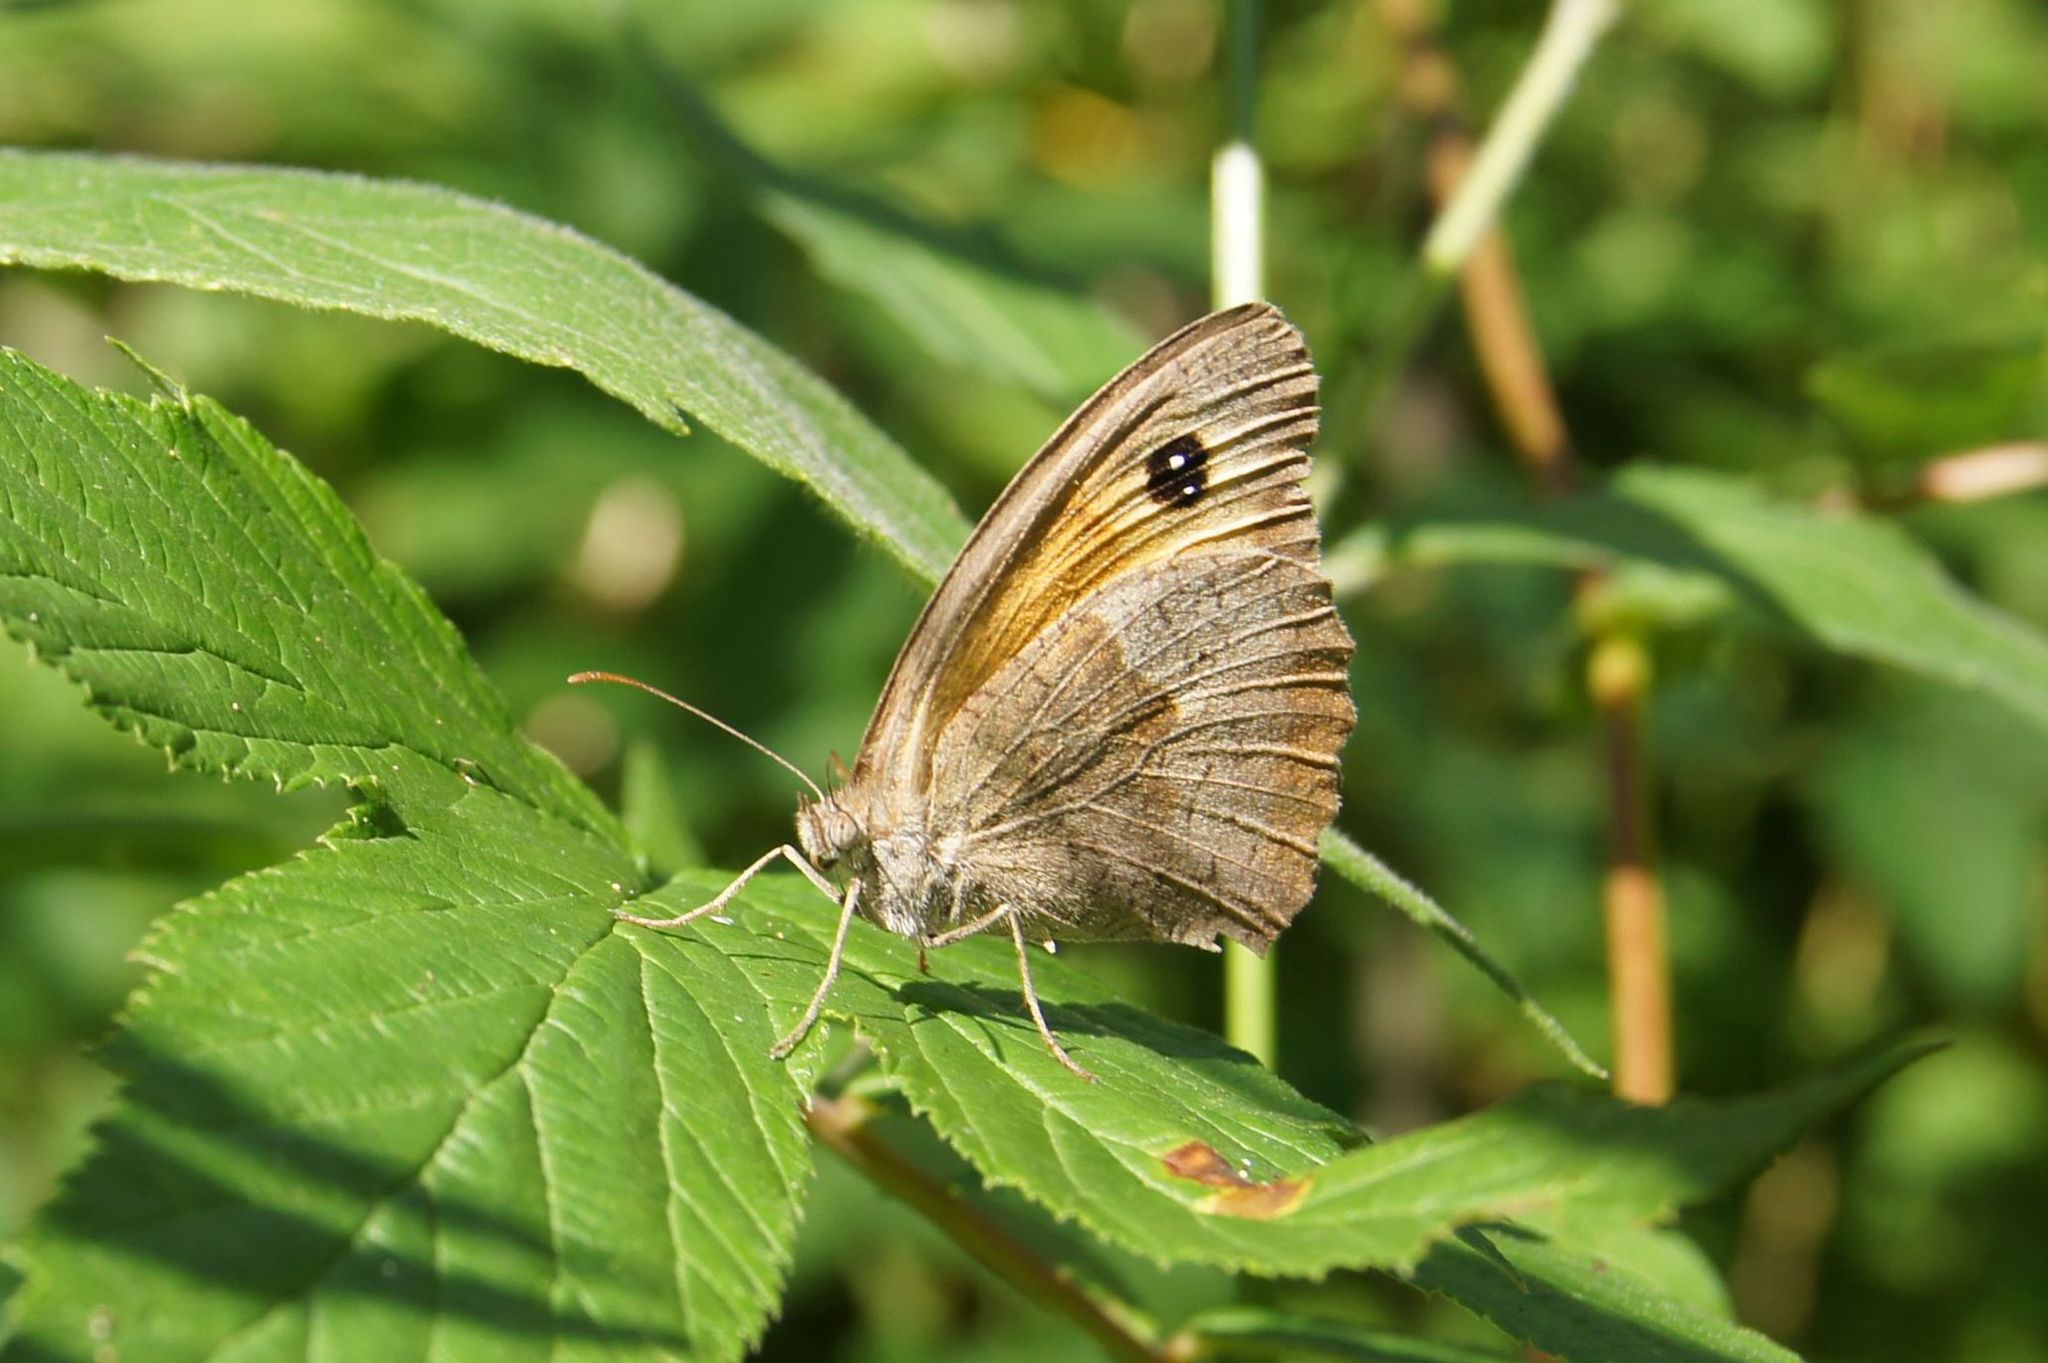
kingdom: Animalia
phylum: Arthropoda
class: Insecta
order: Lepidoptera
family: Nymphalidae
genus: Maniola
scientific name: Maniola jurtina
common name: Meadow brown
